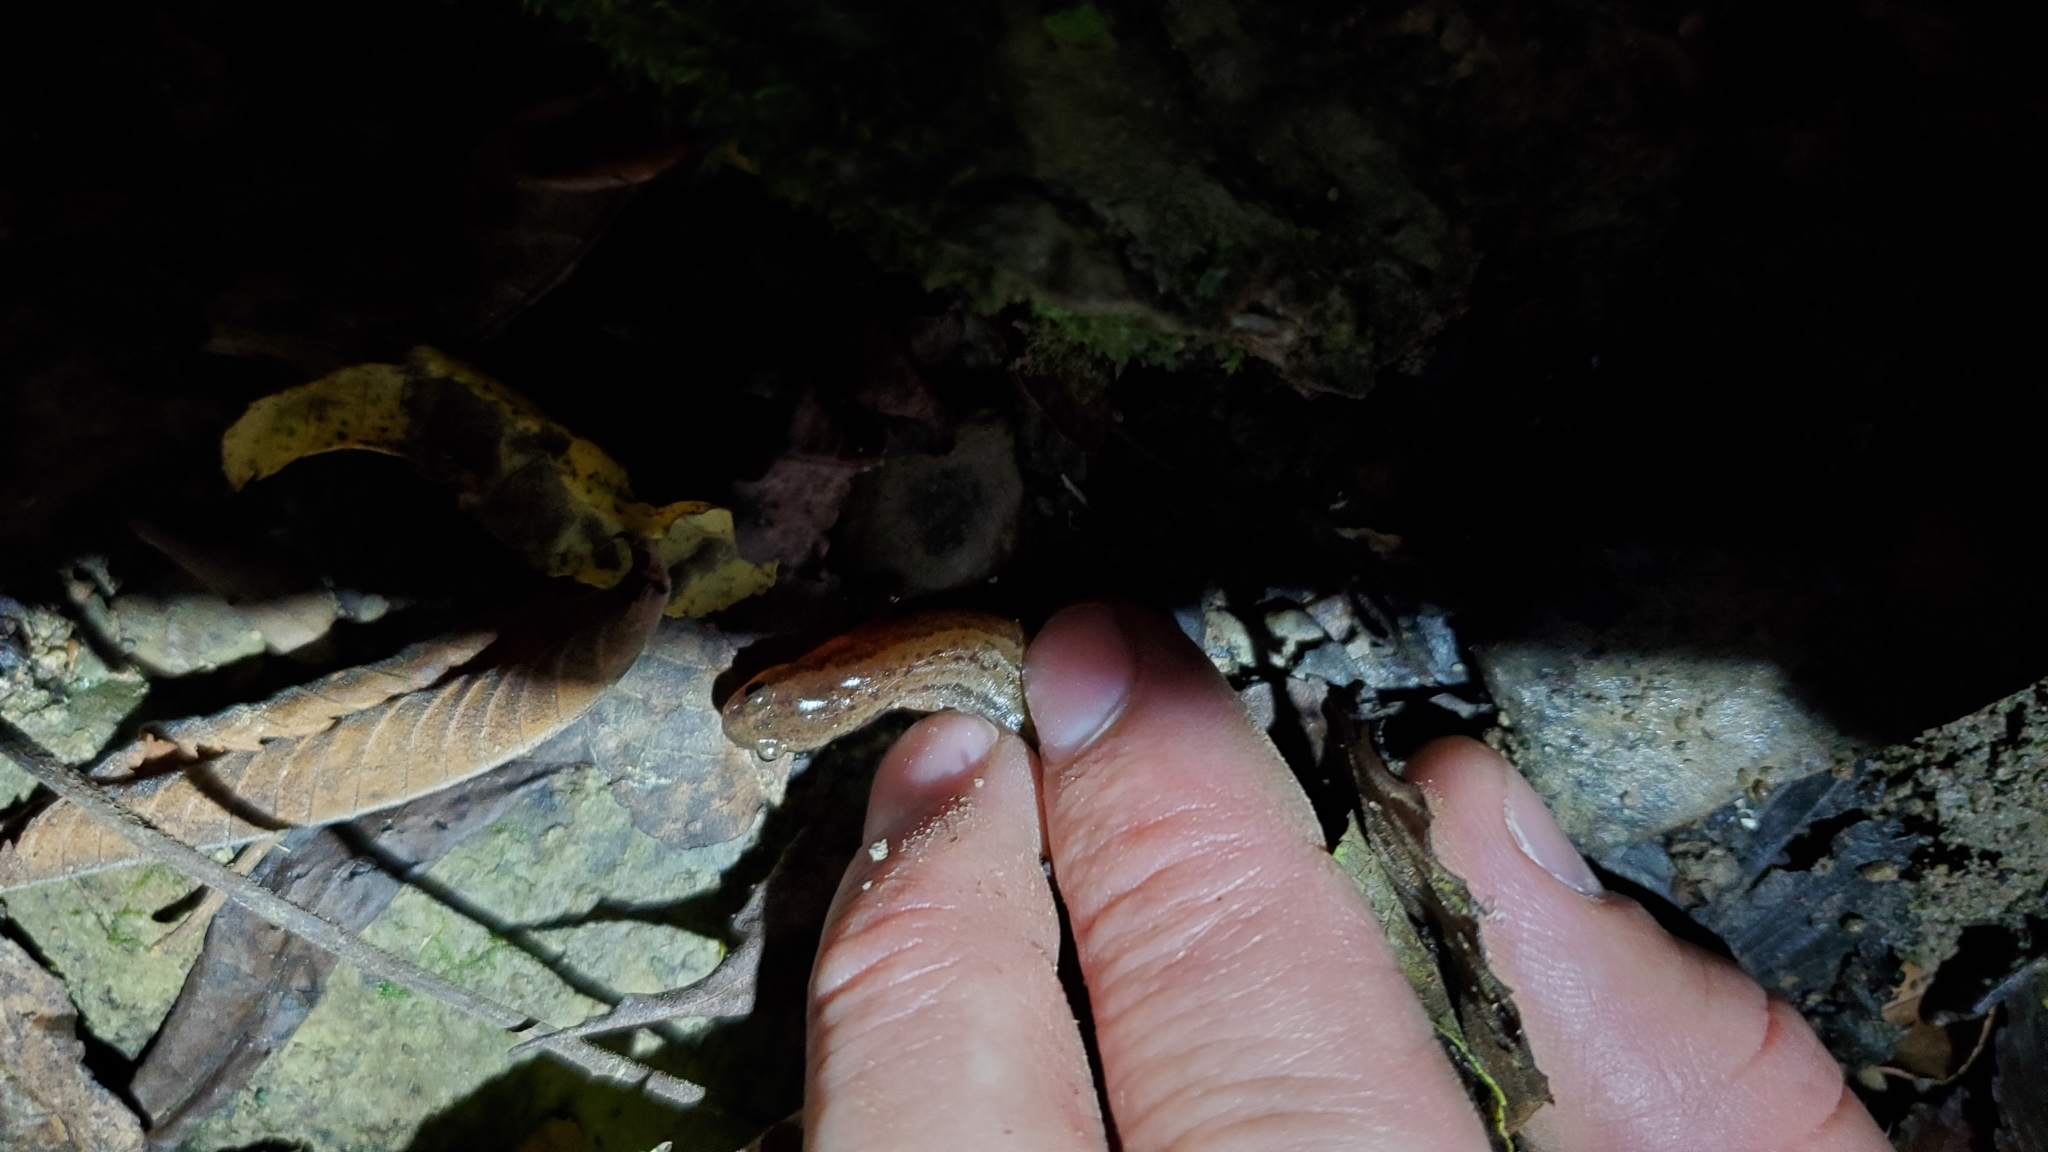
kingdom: Animalia
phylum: Chordata
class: Amphibia
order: Caudata
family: Plethodontidae
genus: Eurycea
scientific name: Eurycea cirrigera
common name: Southern two-lined salamander
